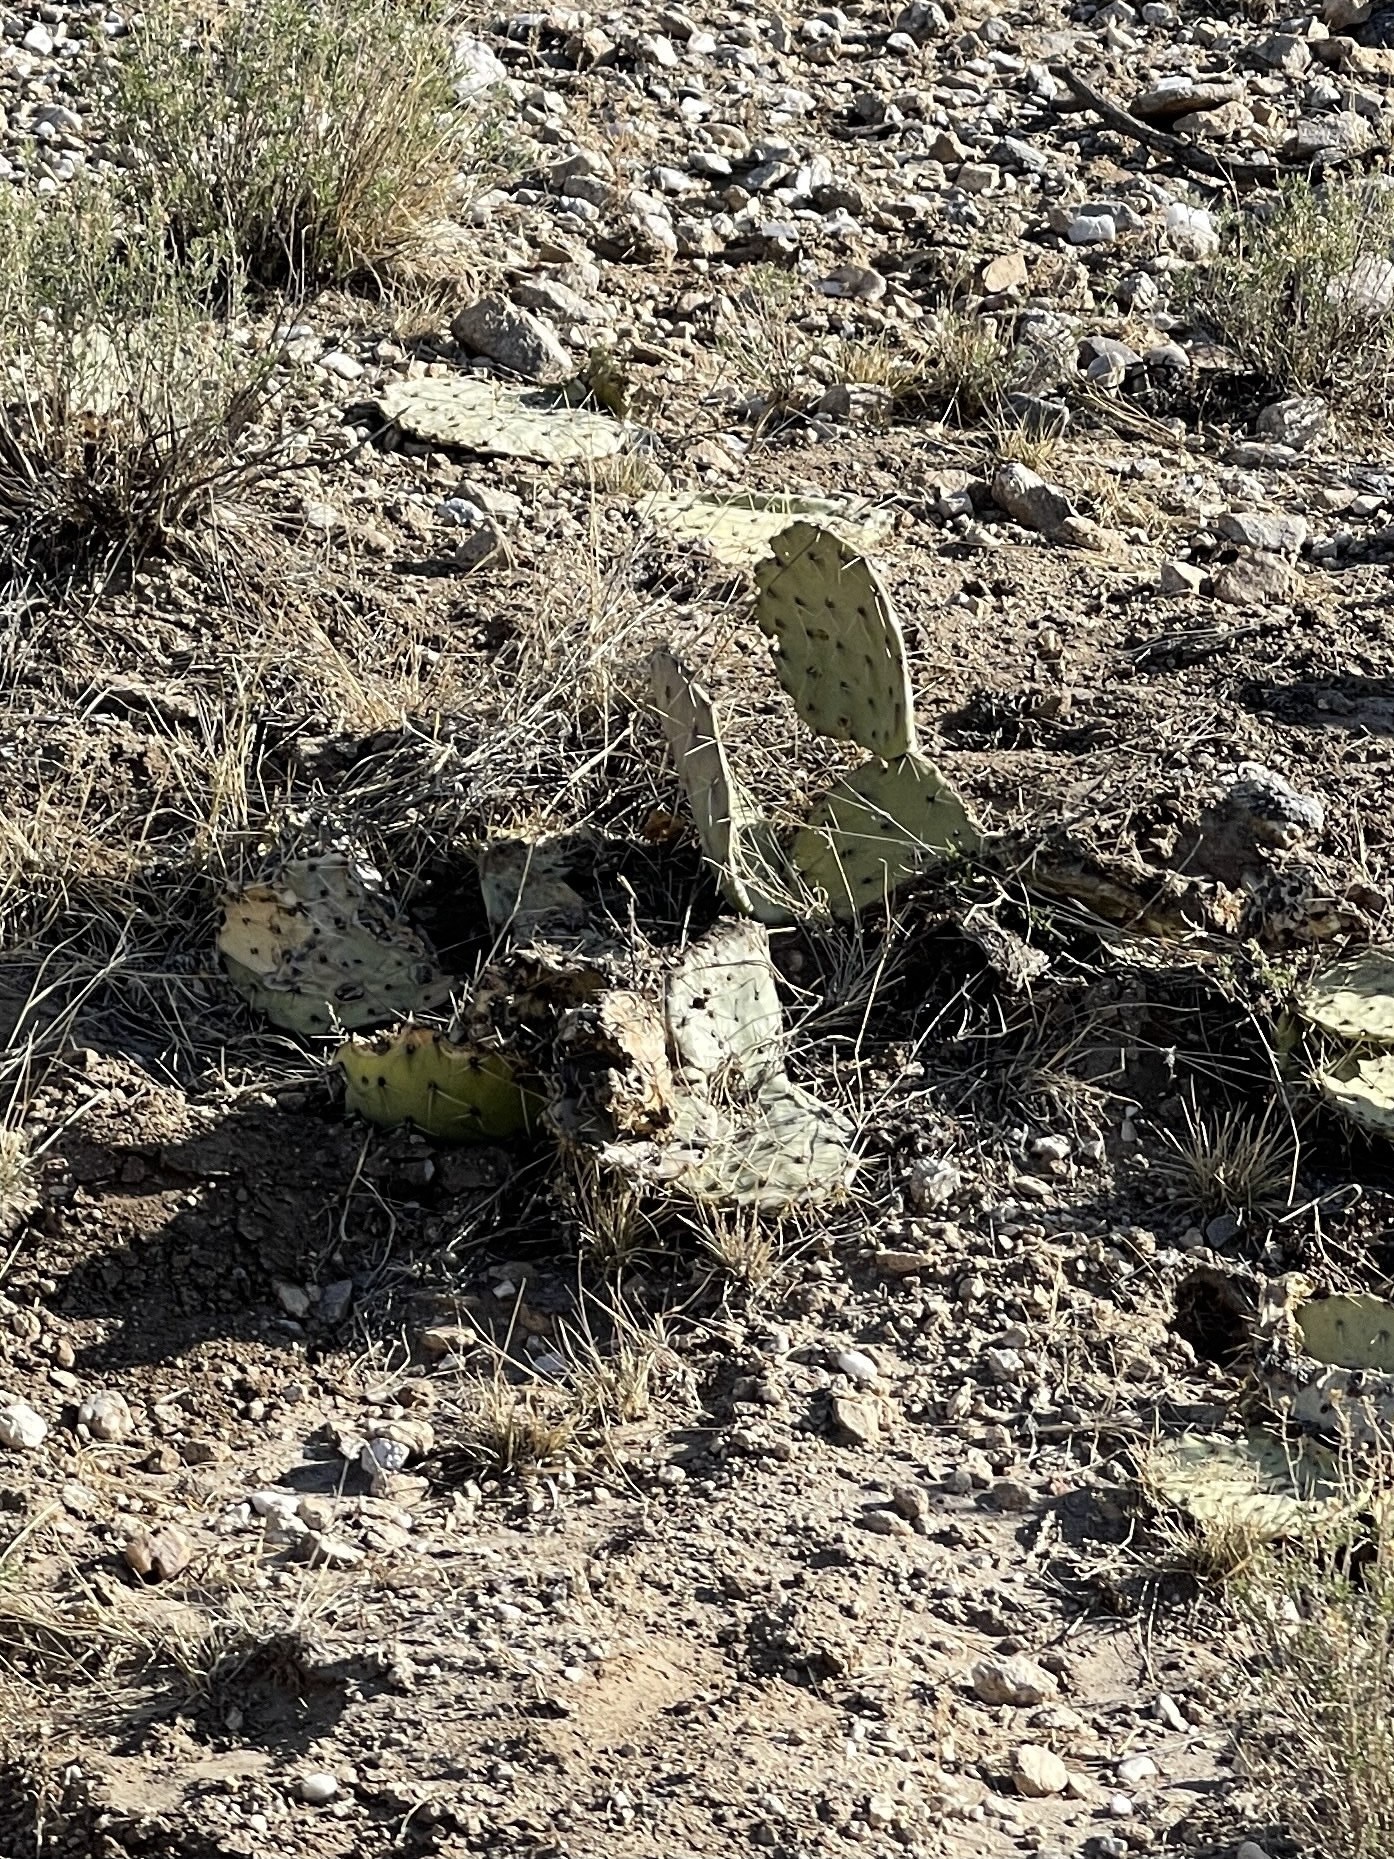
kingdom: Plantae
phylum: Tracheophyta
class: Magnoliopsida
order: Caryophyllales
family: Cactaceae
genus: Opuntia
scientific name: Opuntia phaeacantha
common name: New mexico prickly-pear
